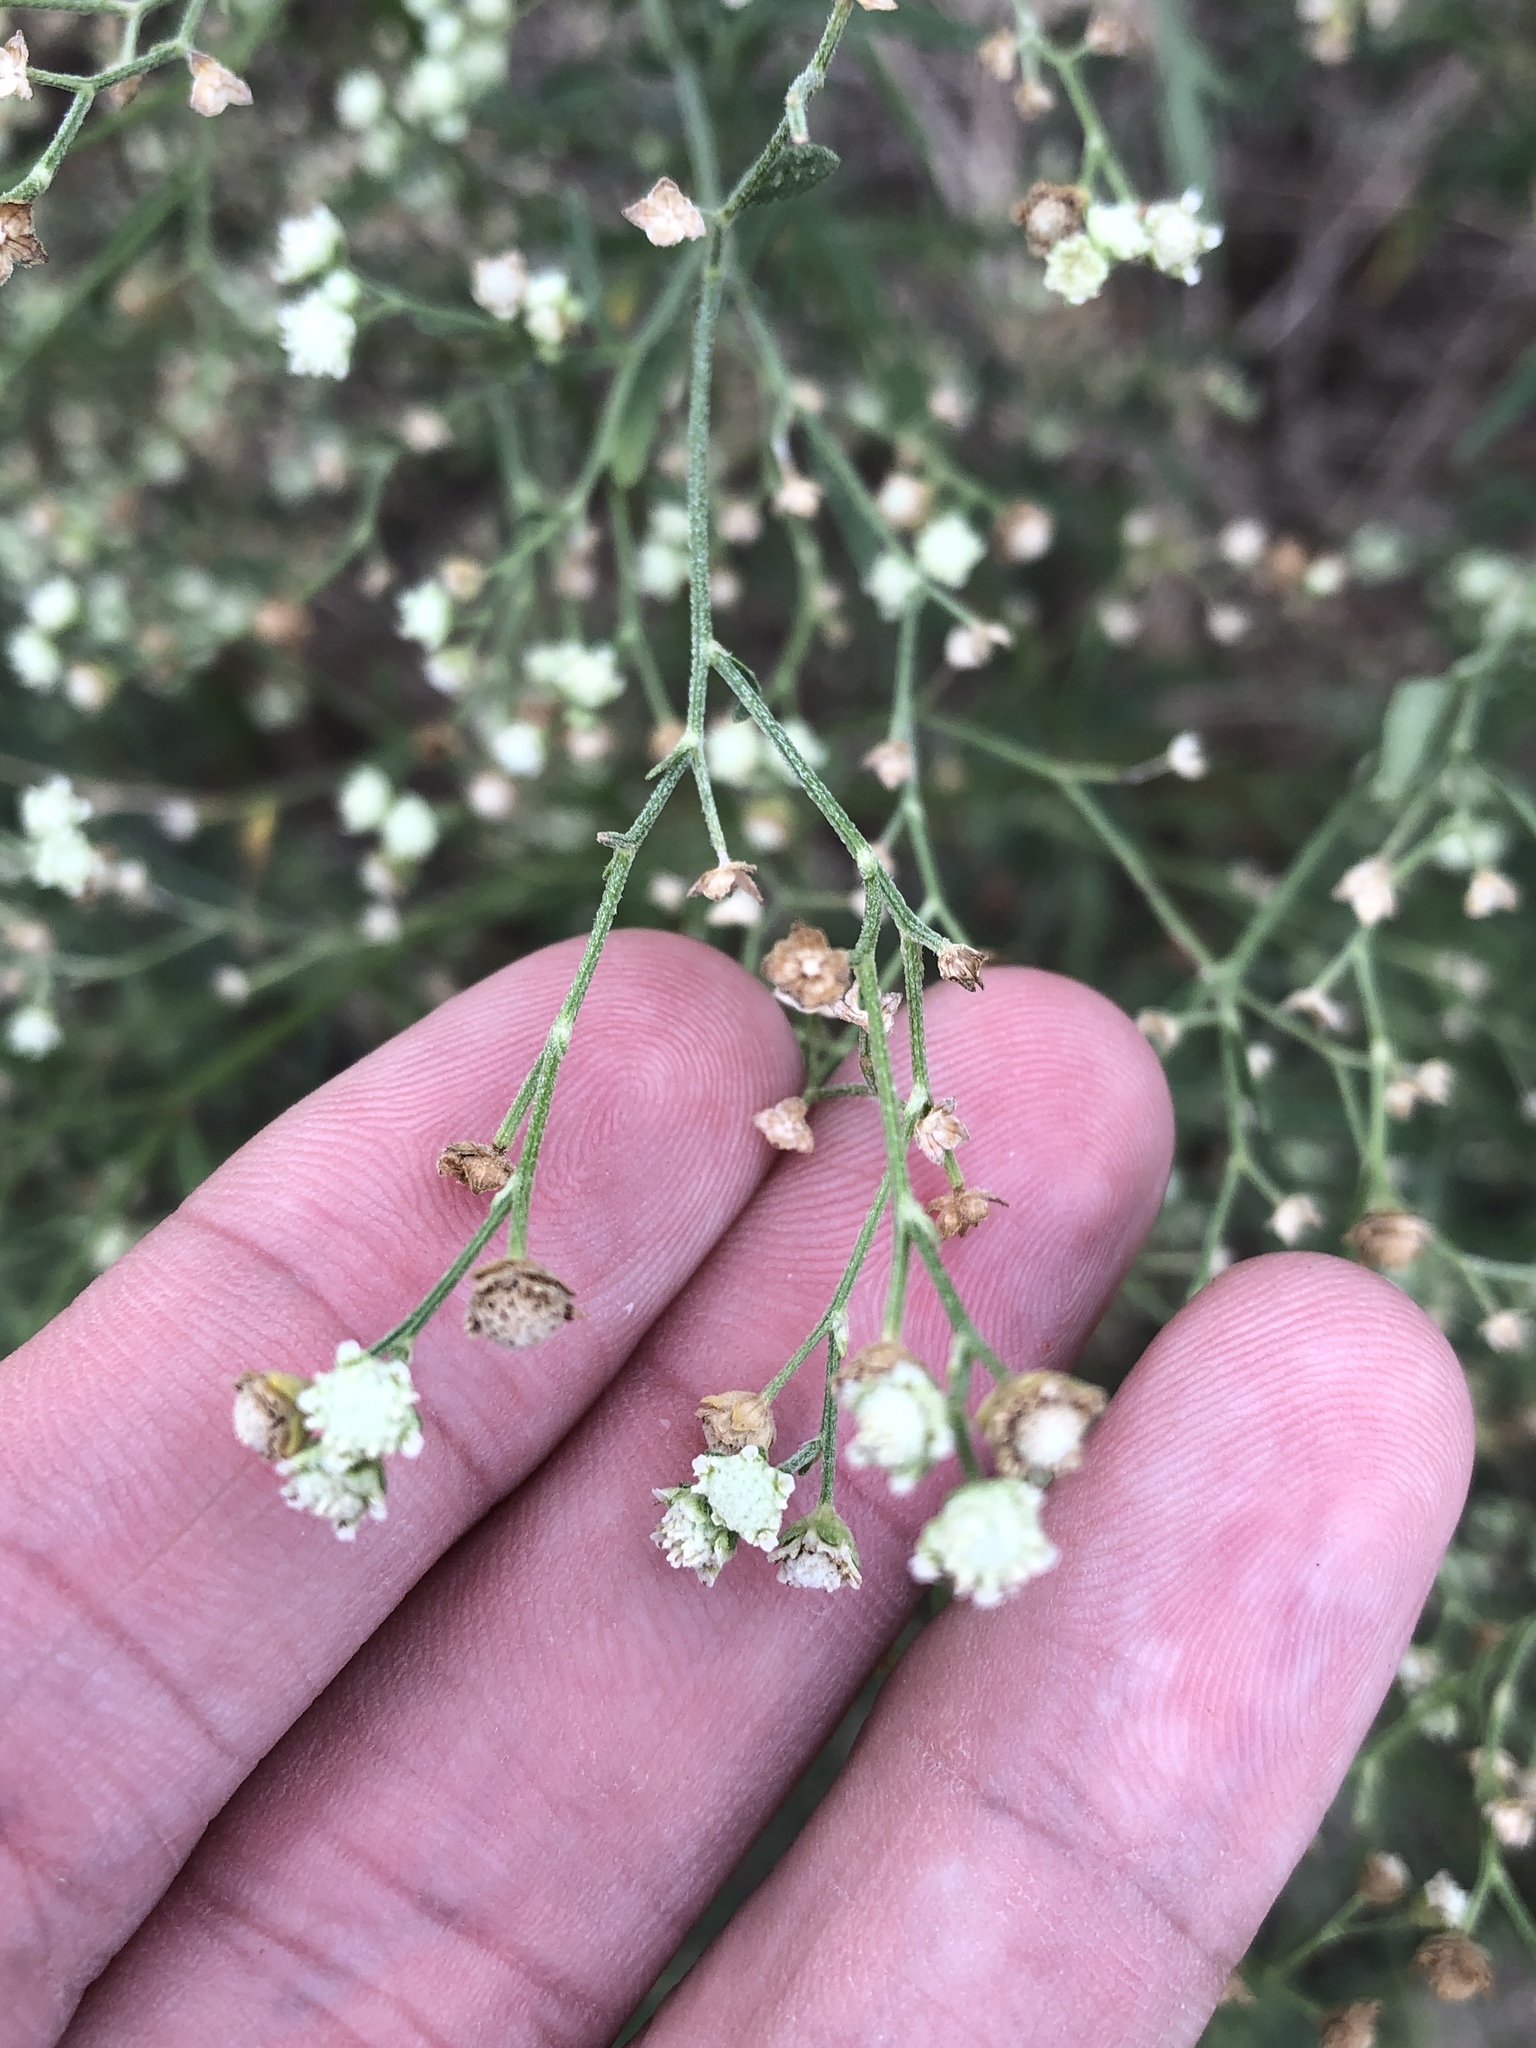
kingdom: Plantae
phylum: Tracheophyta
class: Magnoliopsida
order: Asterales
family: Asteraceae
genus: Parthenium
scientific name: Parthenium hysterophorus
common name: Santa maria feverfew
